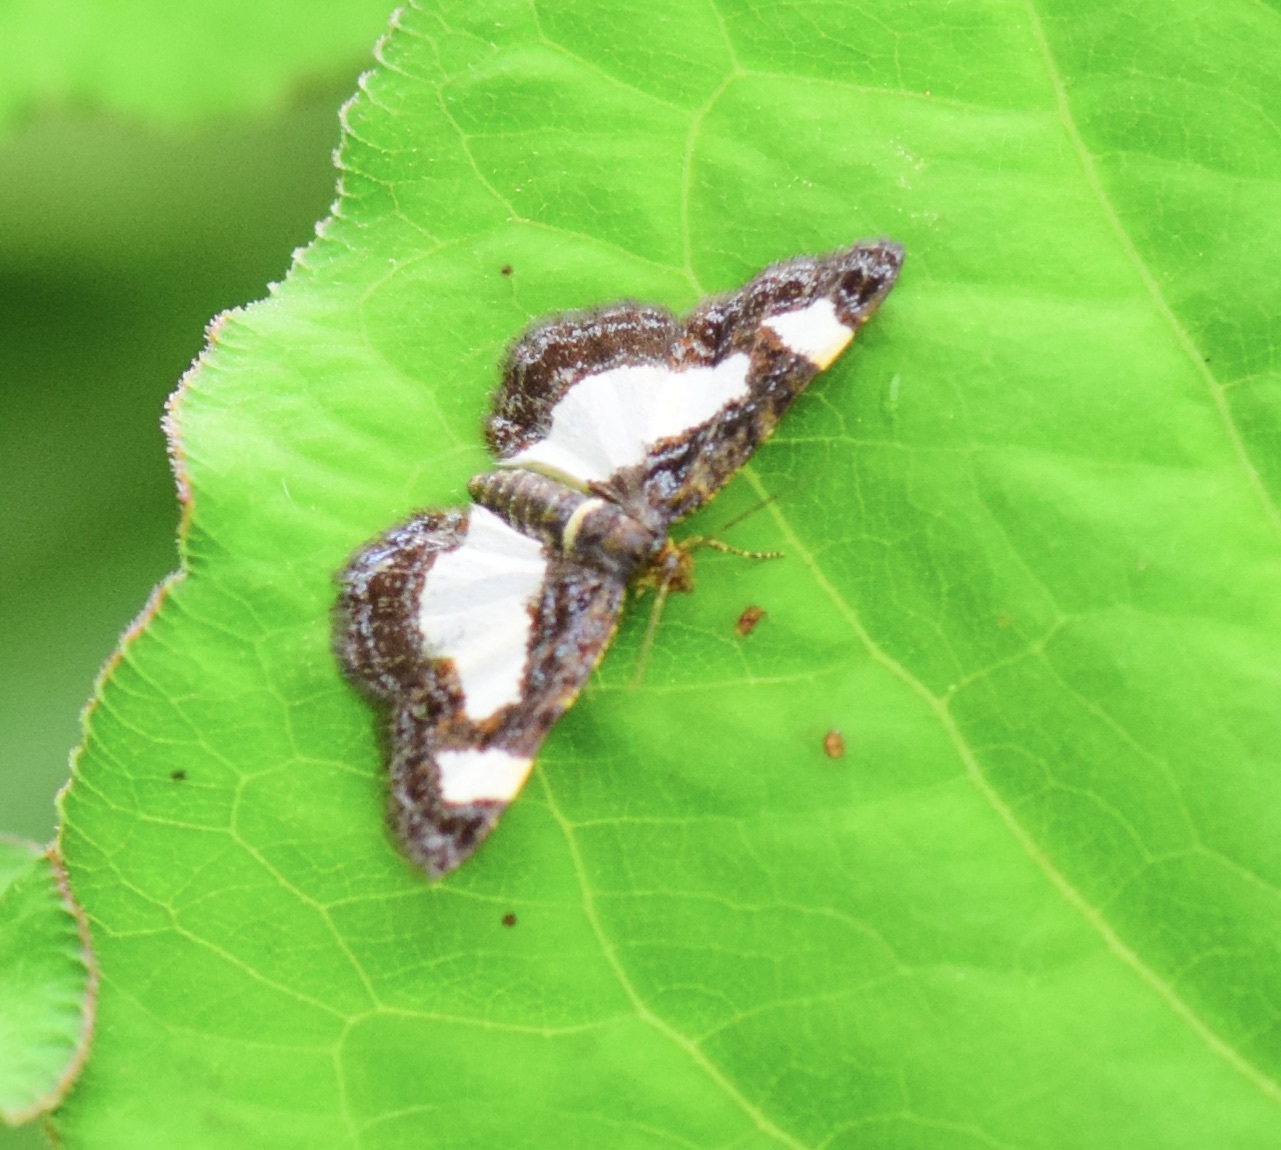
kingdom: Animalia
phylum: Arthropoda
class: Insecta
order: Lepidoptera
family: Geometridae
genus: Heliomata
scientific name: Heliomata cycladata
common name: Common spring moth
